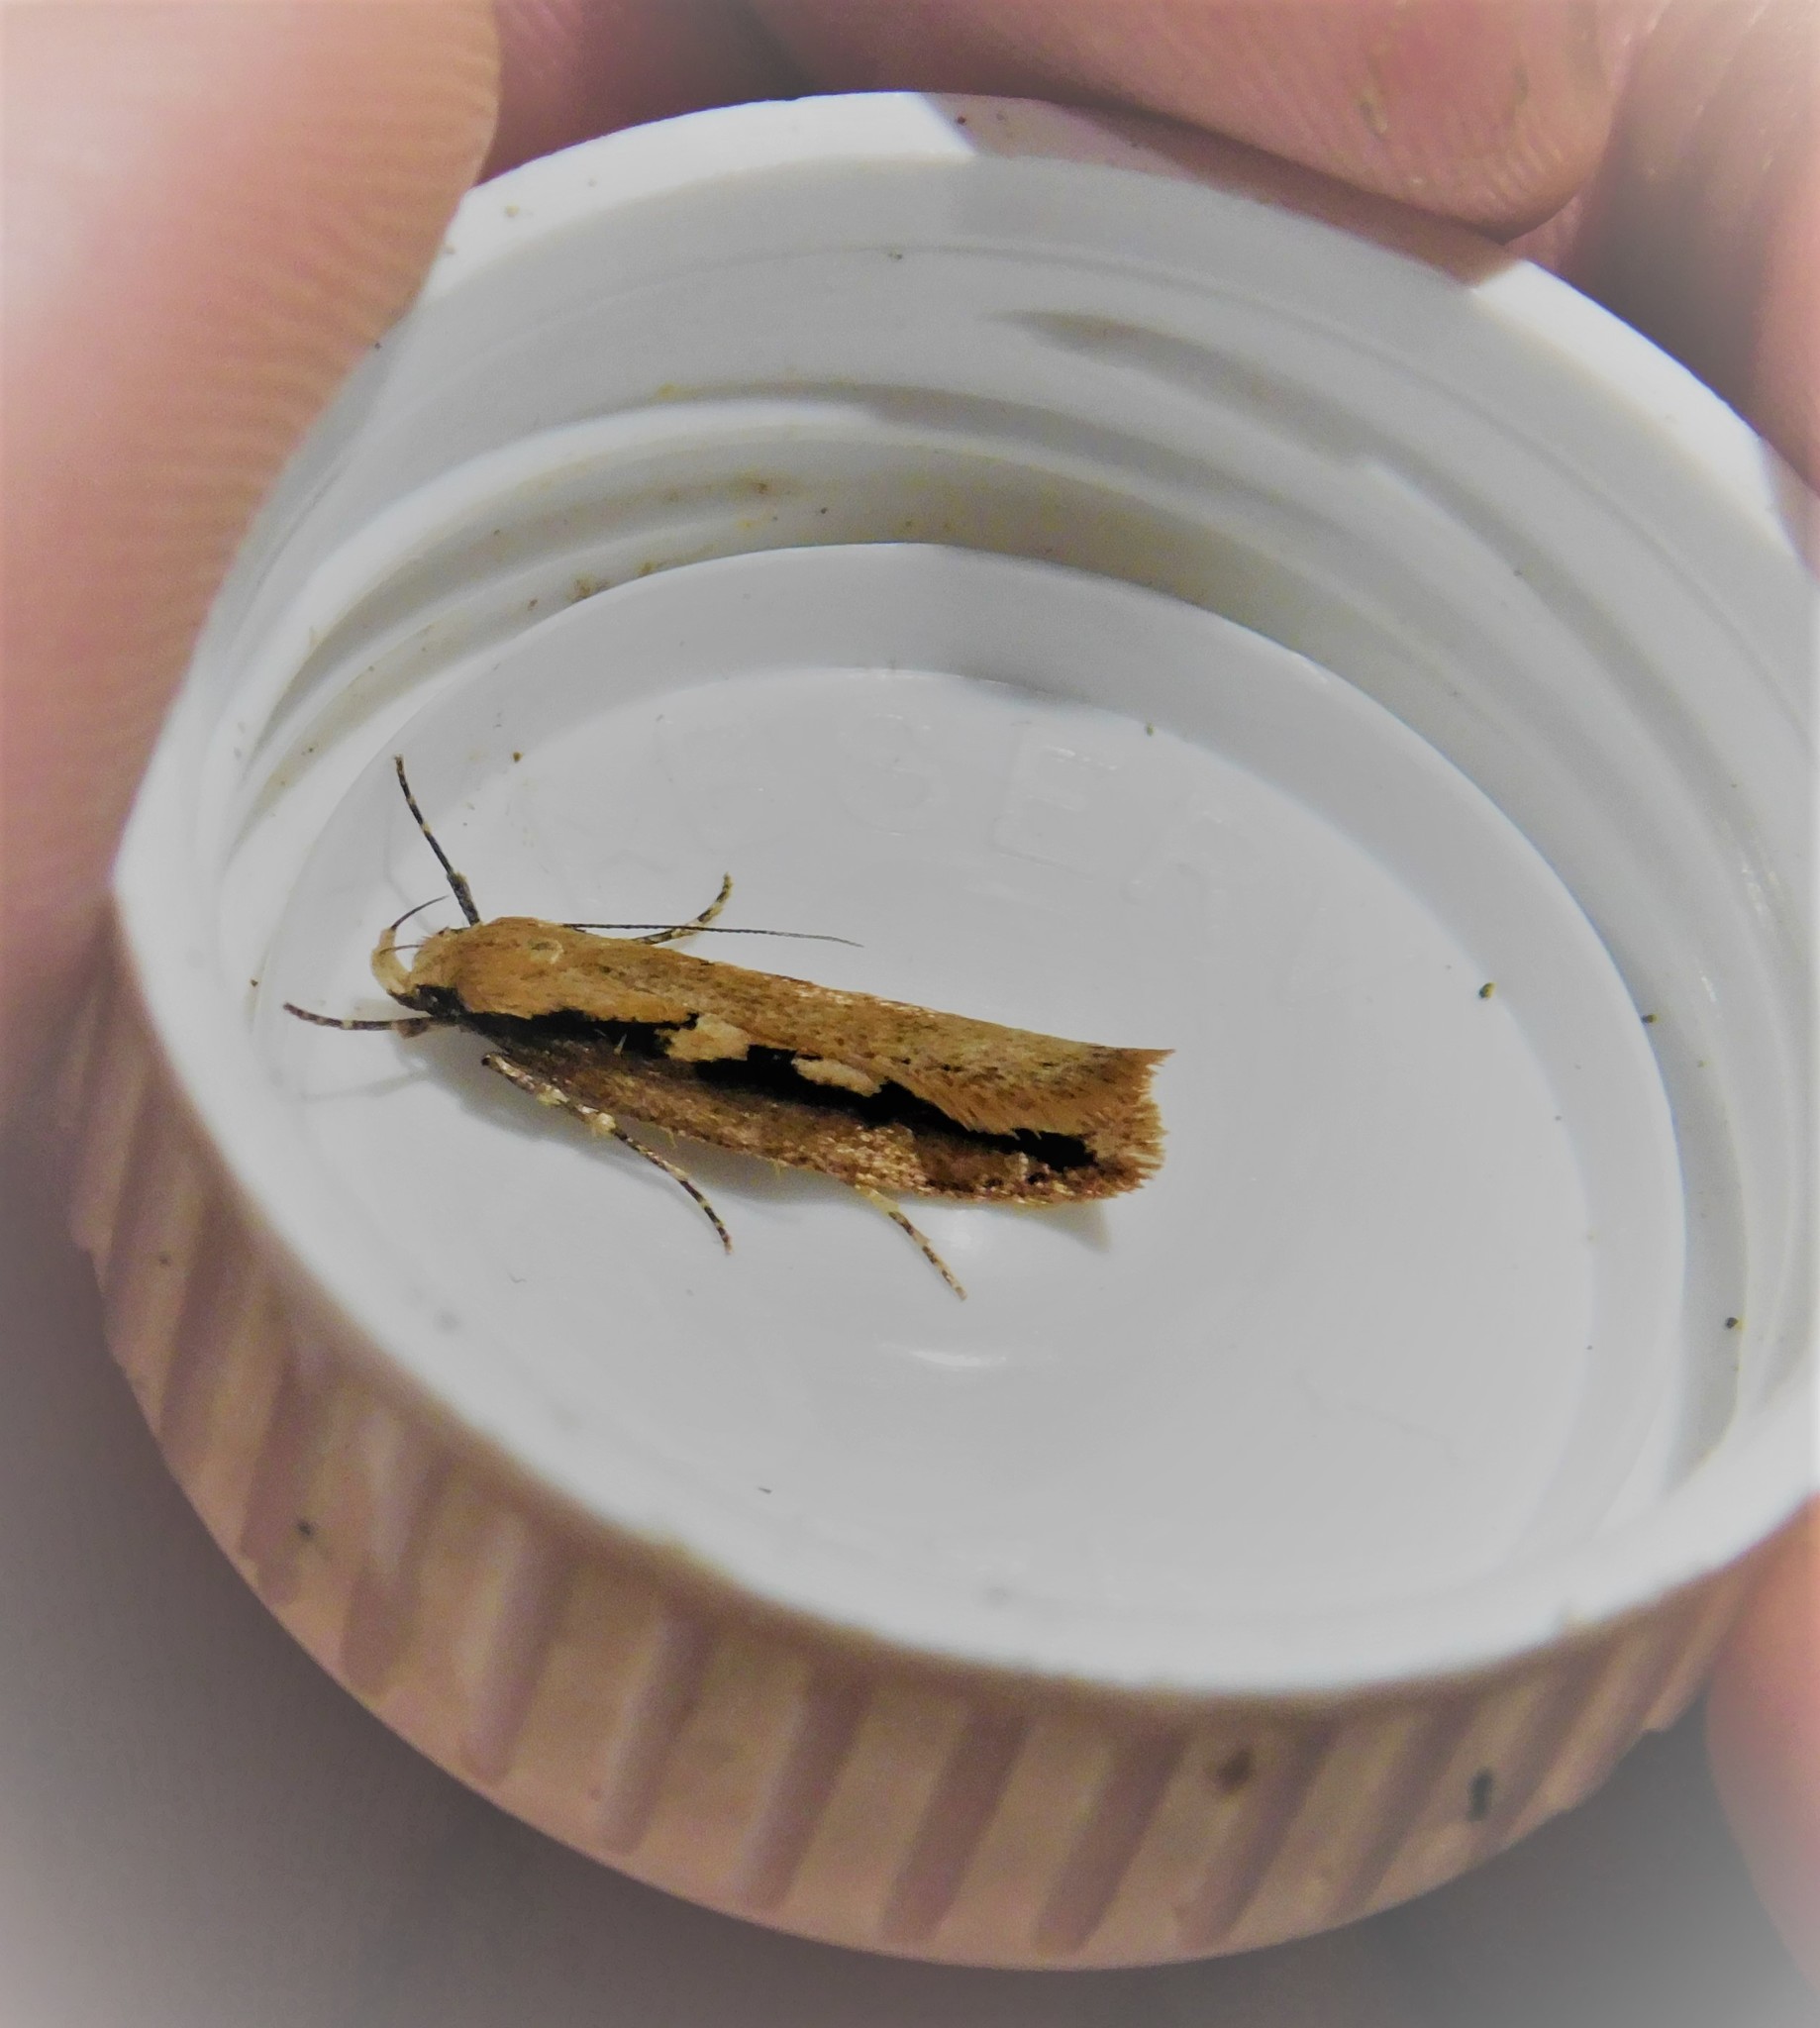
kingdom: Animalia
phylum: Arthropoda
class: Insecta
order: Lepidoptera
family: Oecophoridae
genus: Leptocroca
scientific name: Leptocroca sanguinolenta
